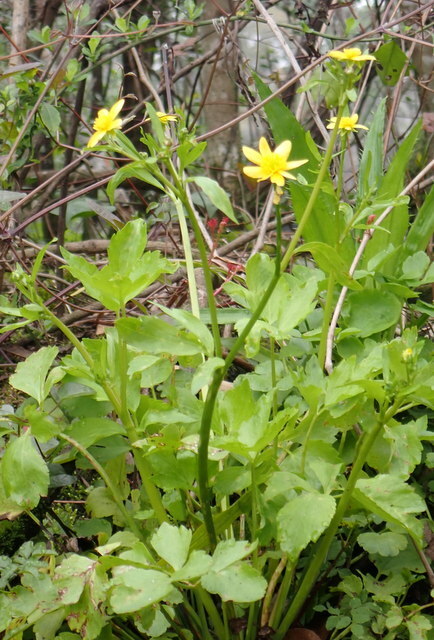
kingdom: Plantae
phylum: Tracheophyta
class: Magnoliopsida
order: Ranunculales
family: Ranunculaceae
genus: Ranunculus
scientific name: Ranunculus hispidus
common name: Bristly buttercup
